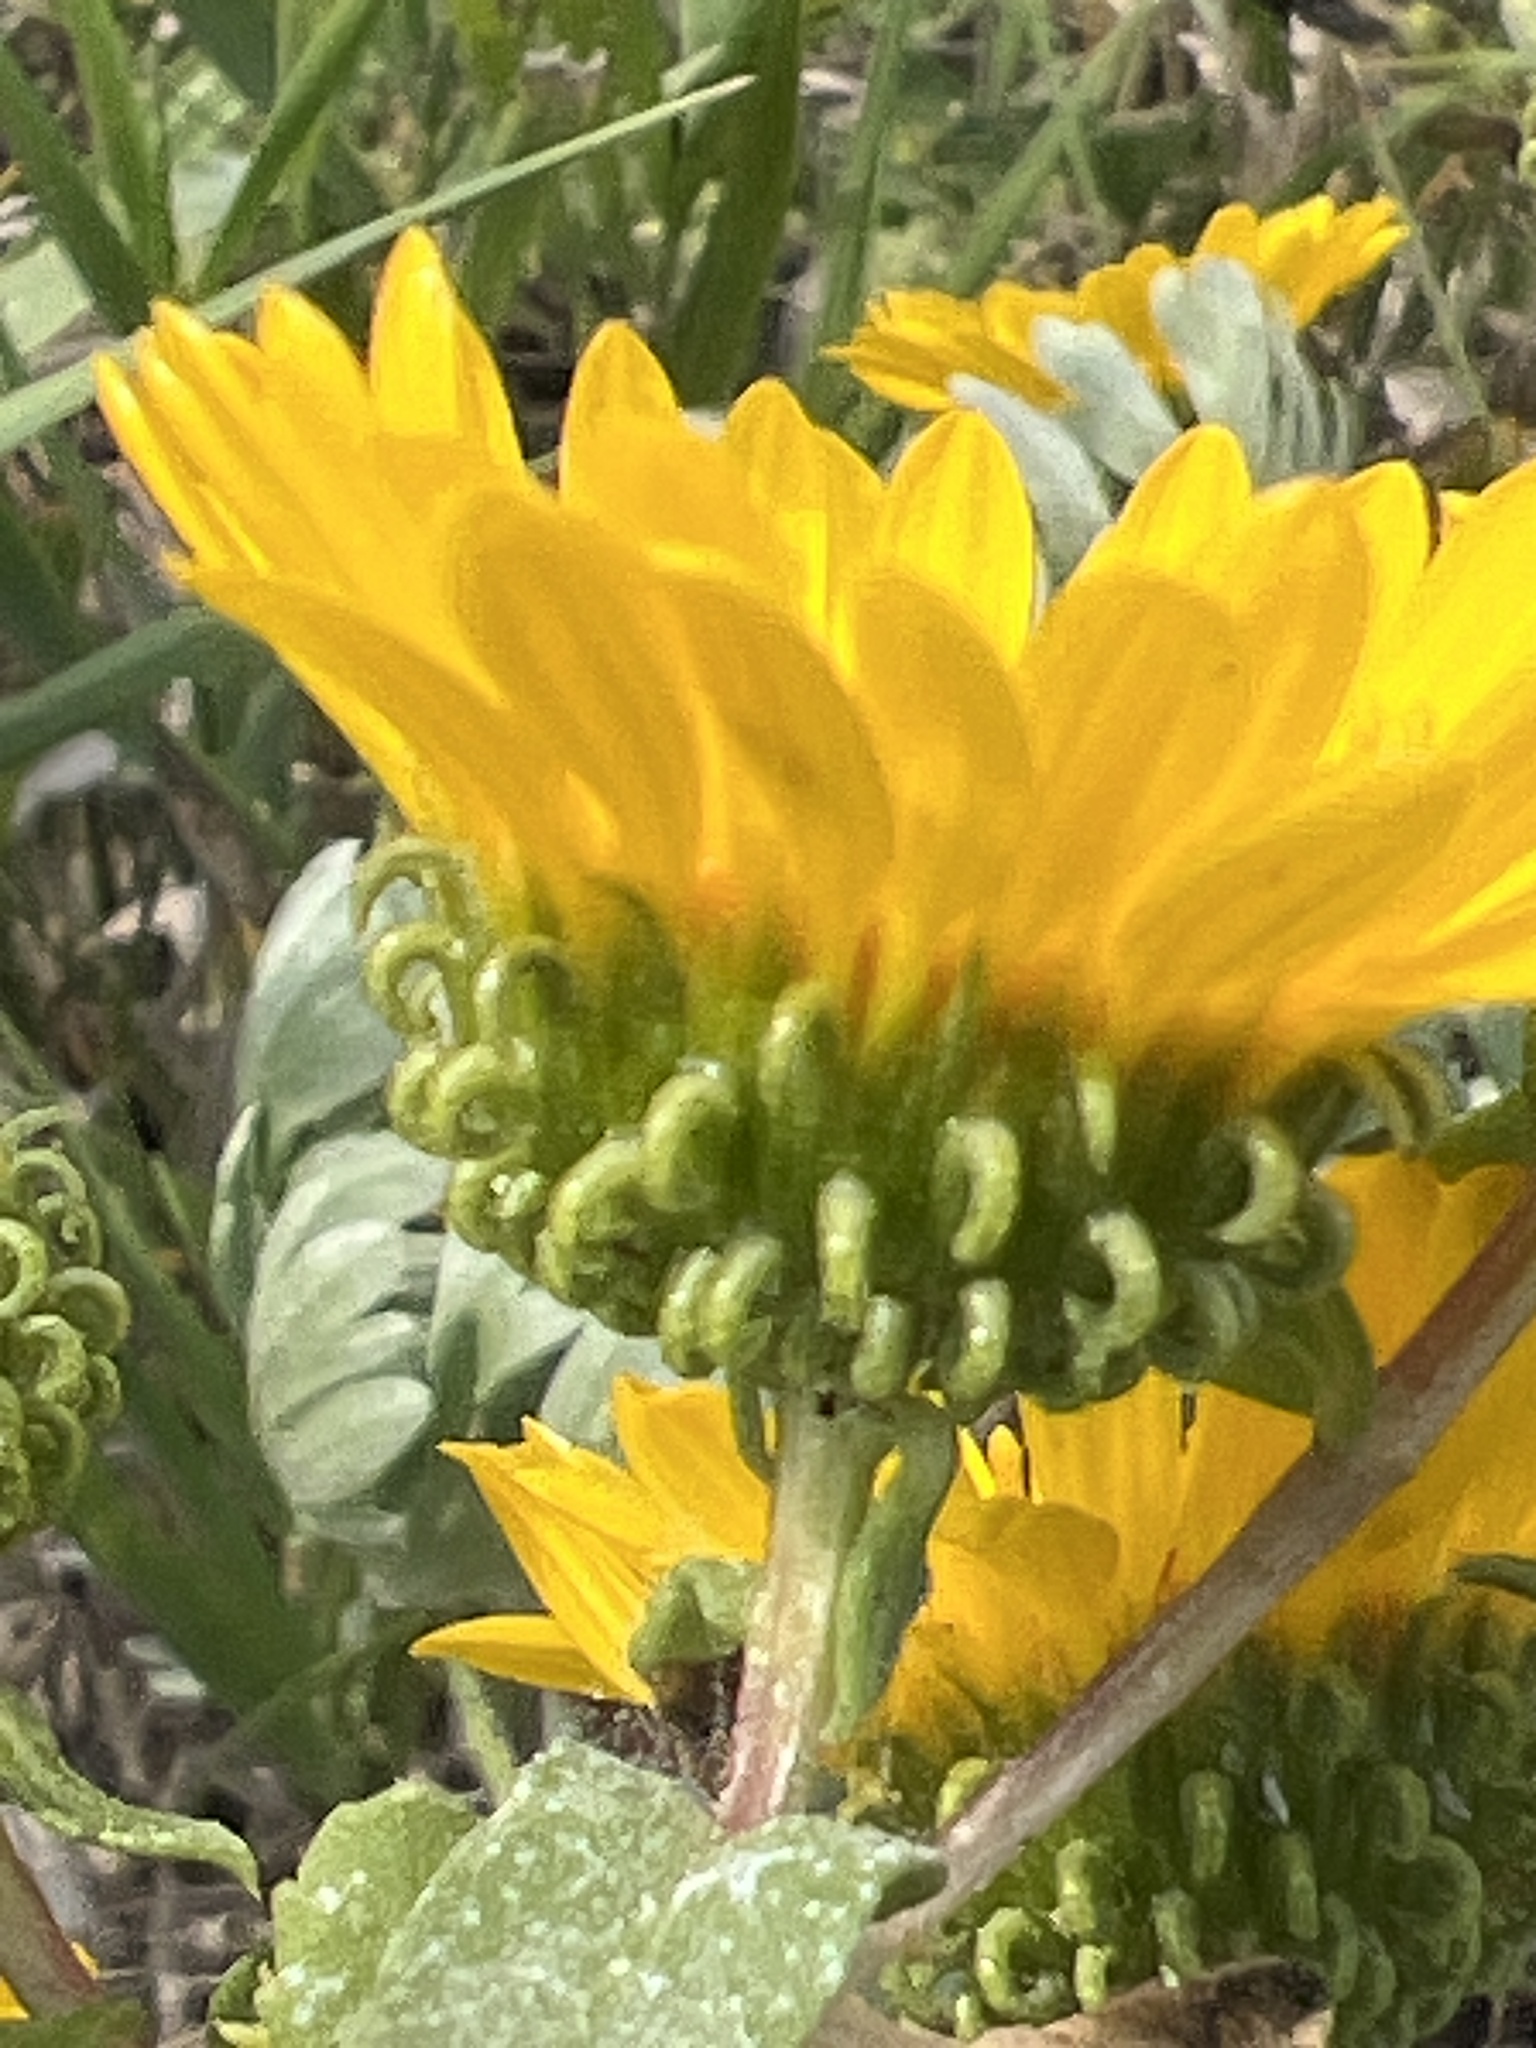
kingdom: Plantae
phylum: Tracheophyta
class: Magnoliopsida
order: Asterales
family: Asteraceae
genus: Grindelia
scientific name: Grindelia squarrosa
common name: Curly-cup gumweed
